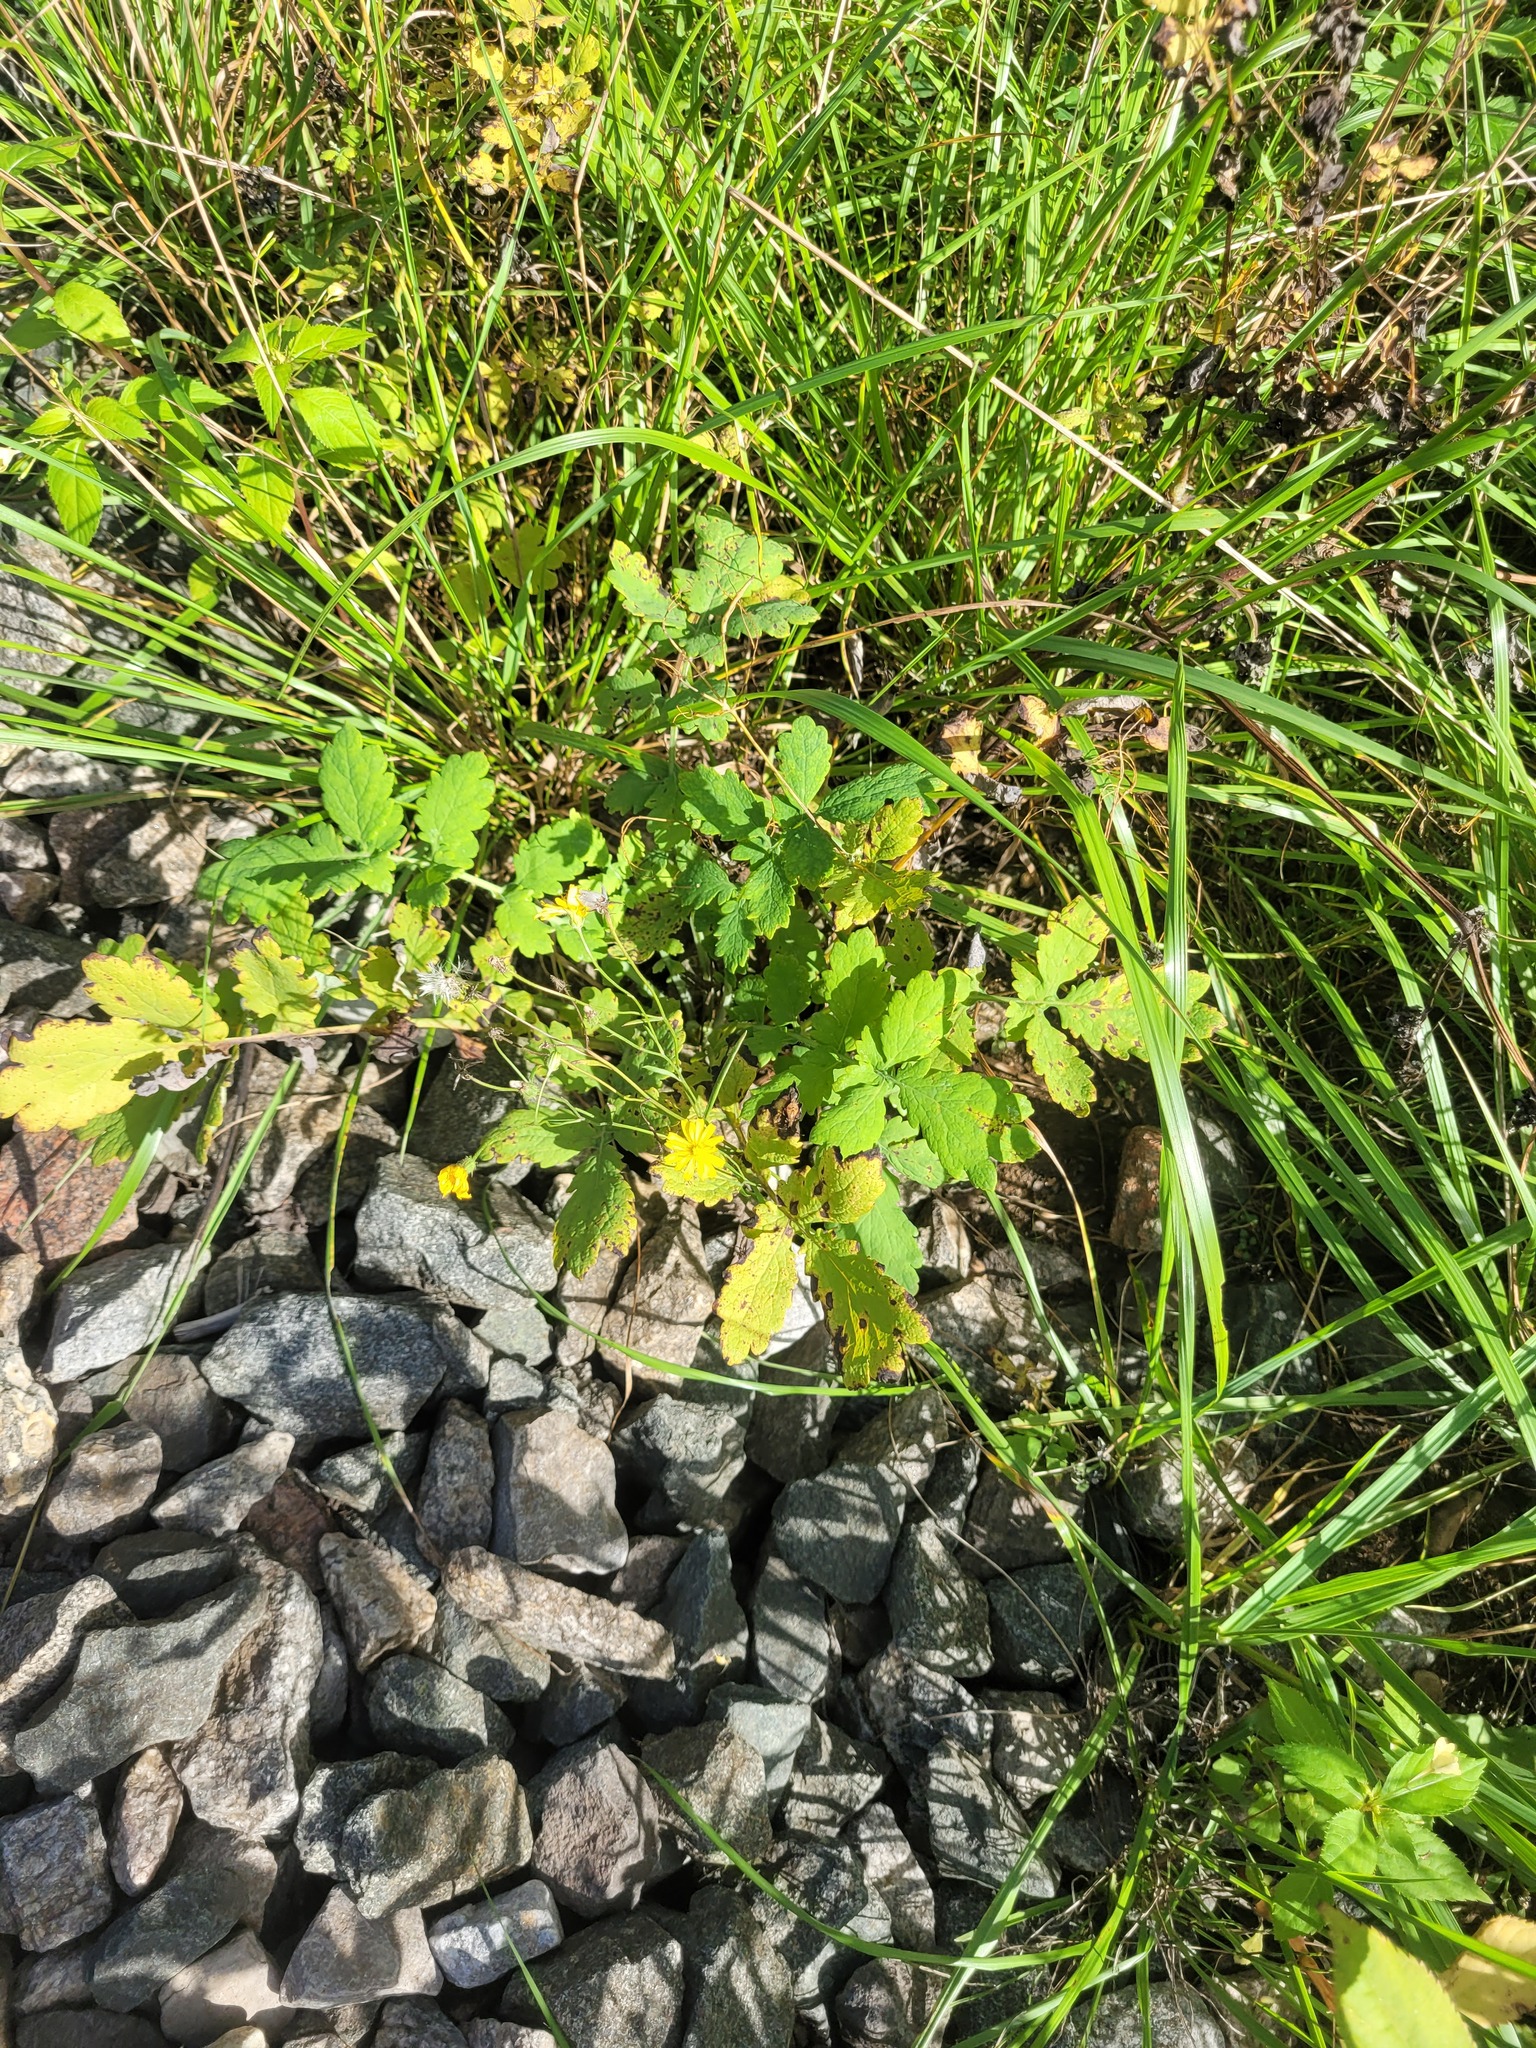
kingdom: Plantae
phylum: Tracheophyta
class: Magnoliopsida
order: Ranunculales
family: Papaveraceae
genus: Chelidonium
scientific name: Chelidonium majus
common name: Greater celandine
